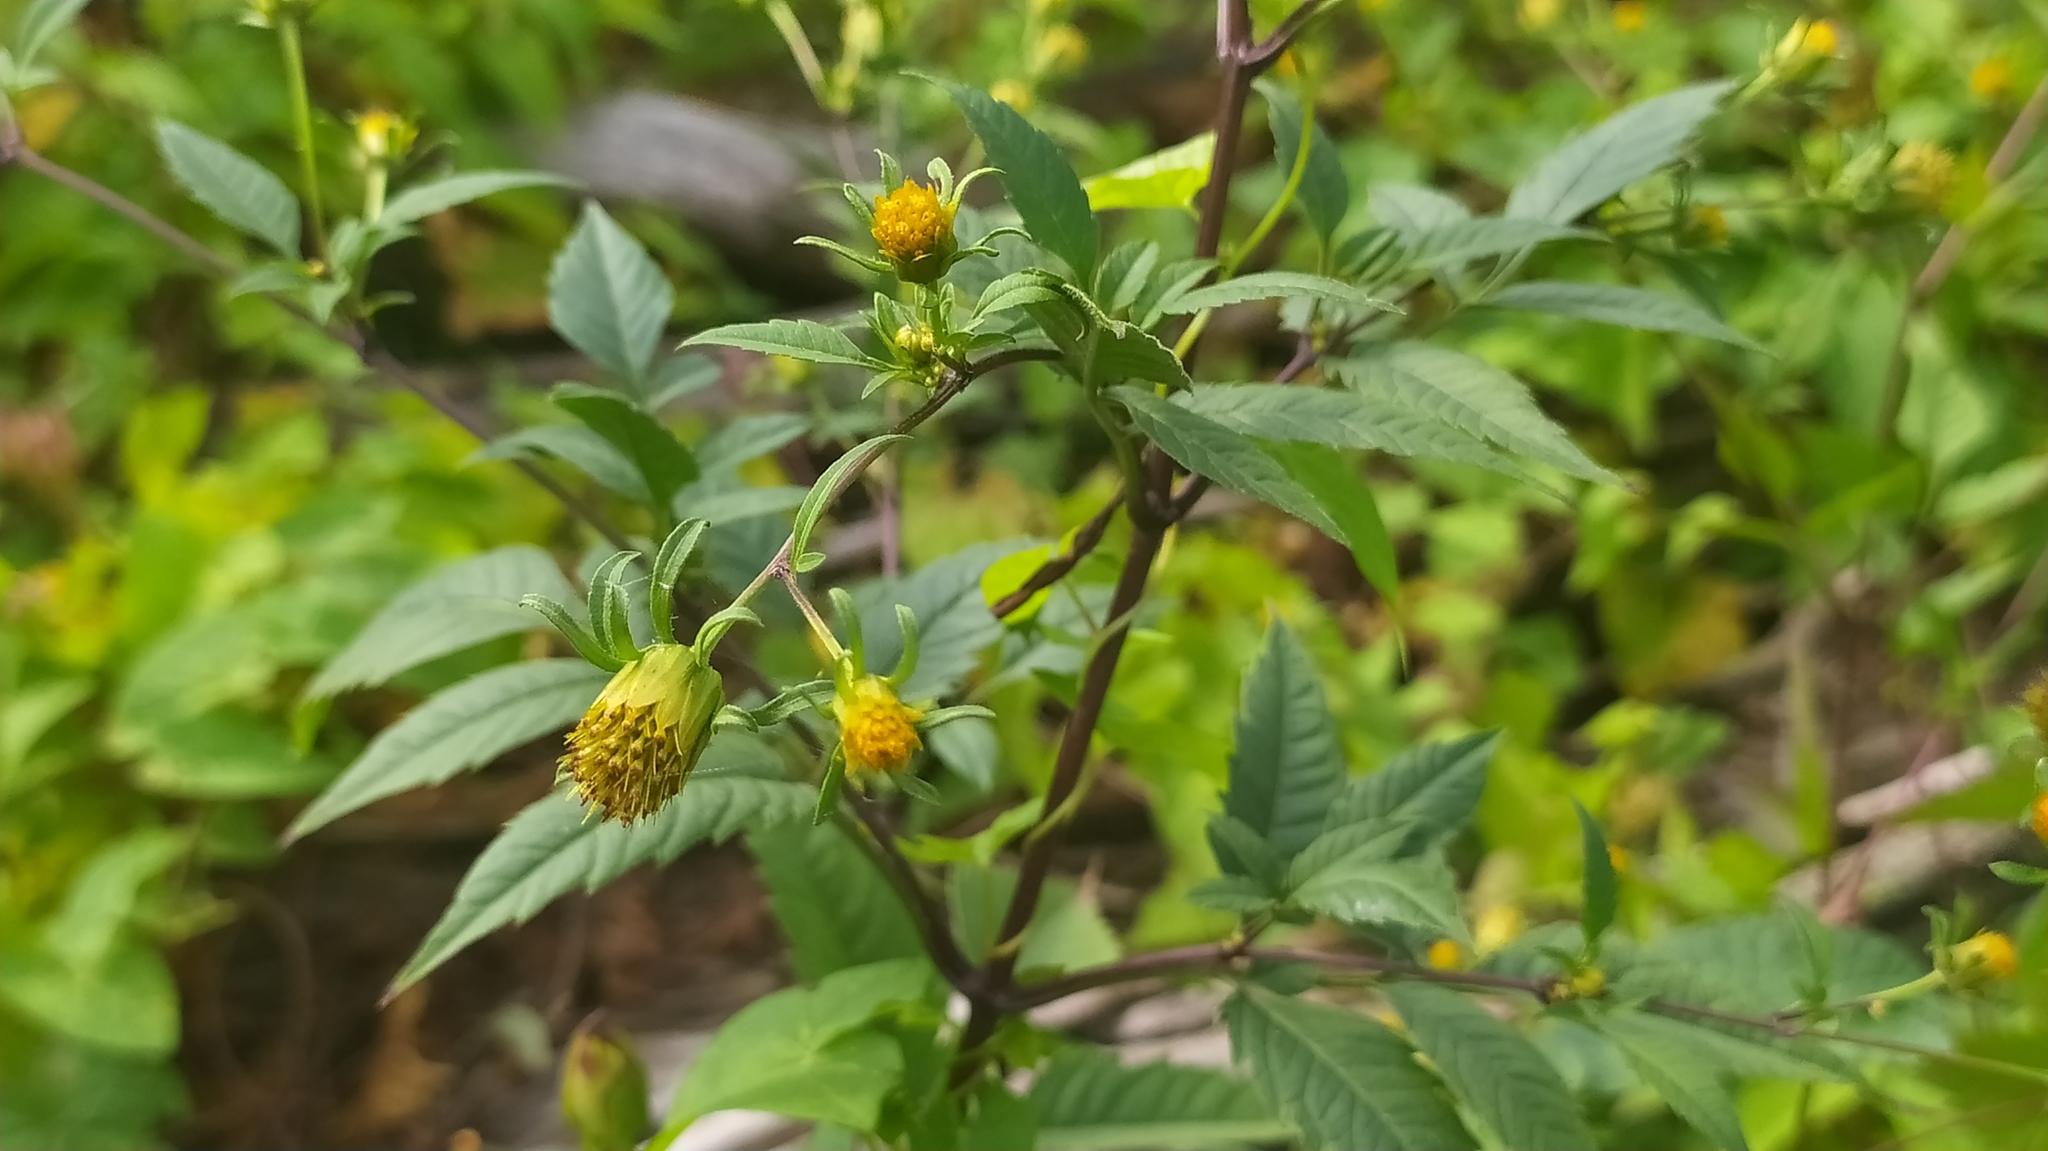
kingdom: Plantae
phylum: Tracheophyta
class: Magnoliopsida
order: Asterales
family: Asteraceae
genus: Bidens
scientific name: Bidens frondosa
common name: Beggarticks
